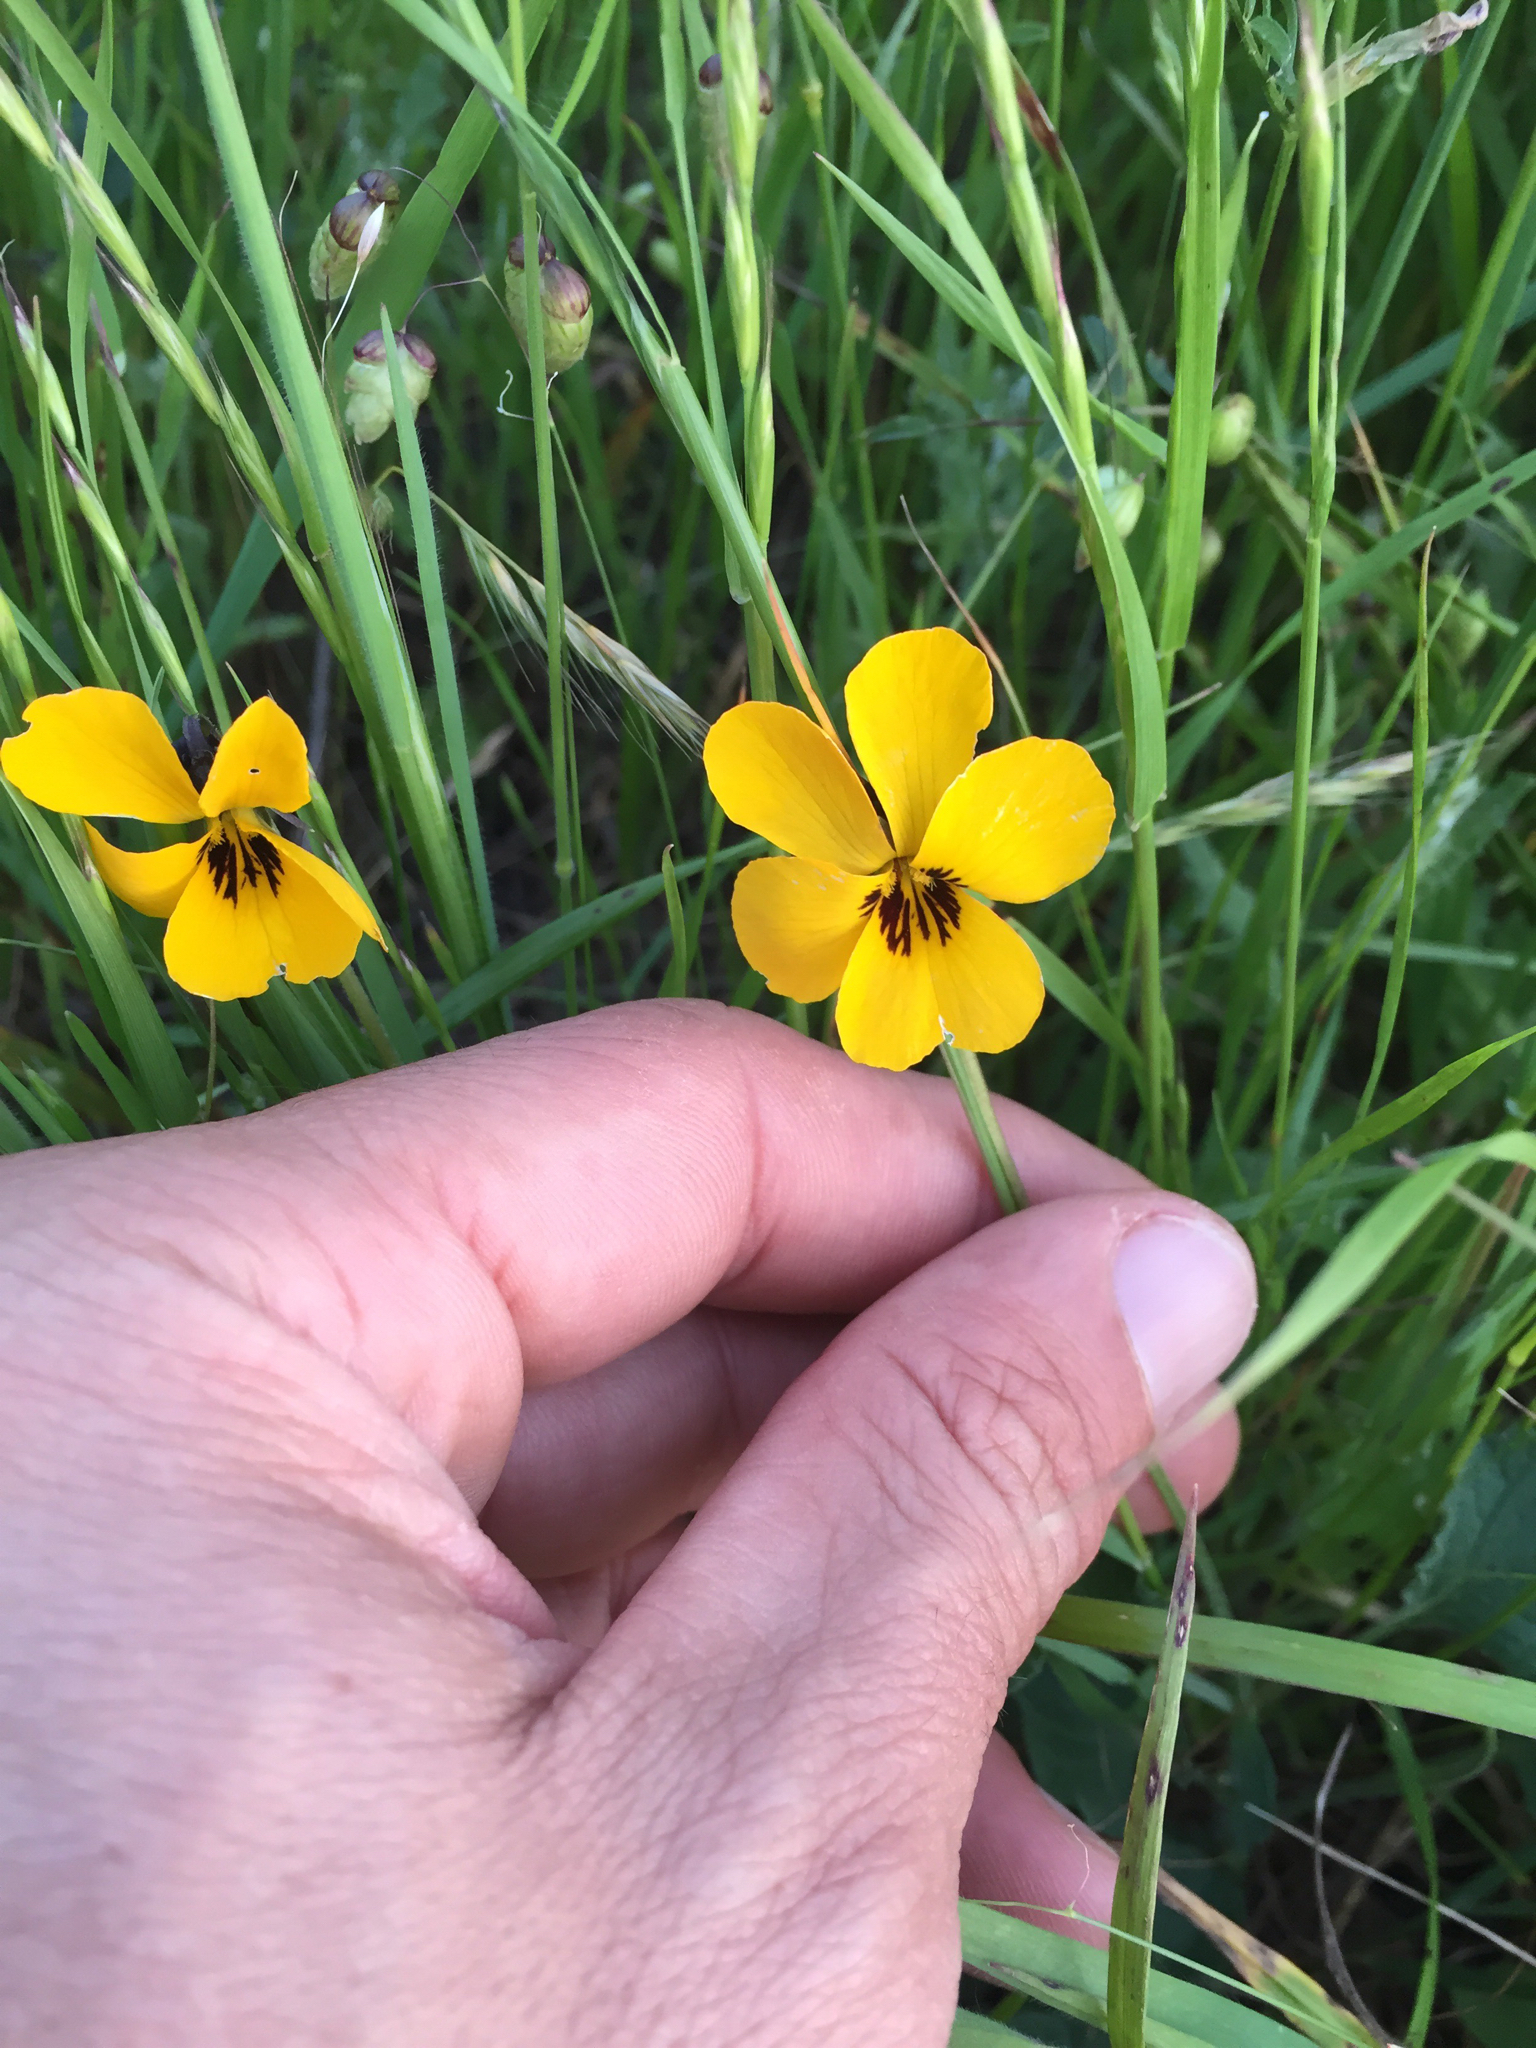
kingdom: Plantae
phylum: Tracheophyta
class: Magnoliopsida
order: Malpighiales
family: Violaceae
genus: Viola
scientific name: Viola pedunculata
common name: California golden violet
